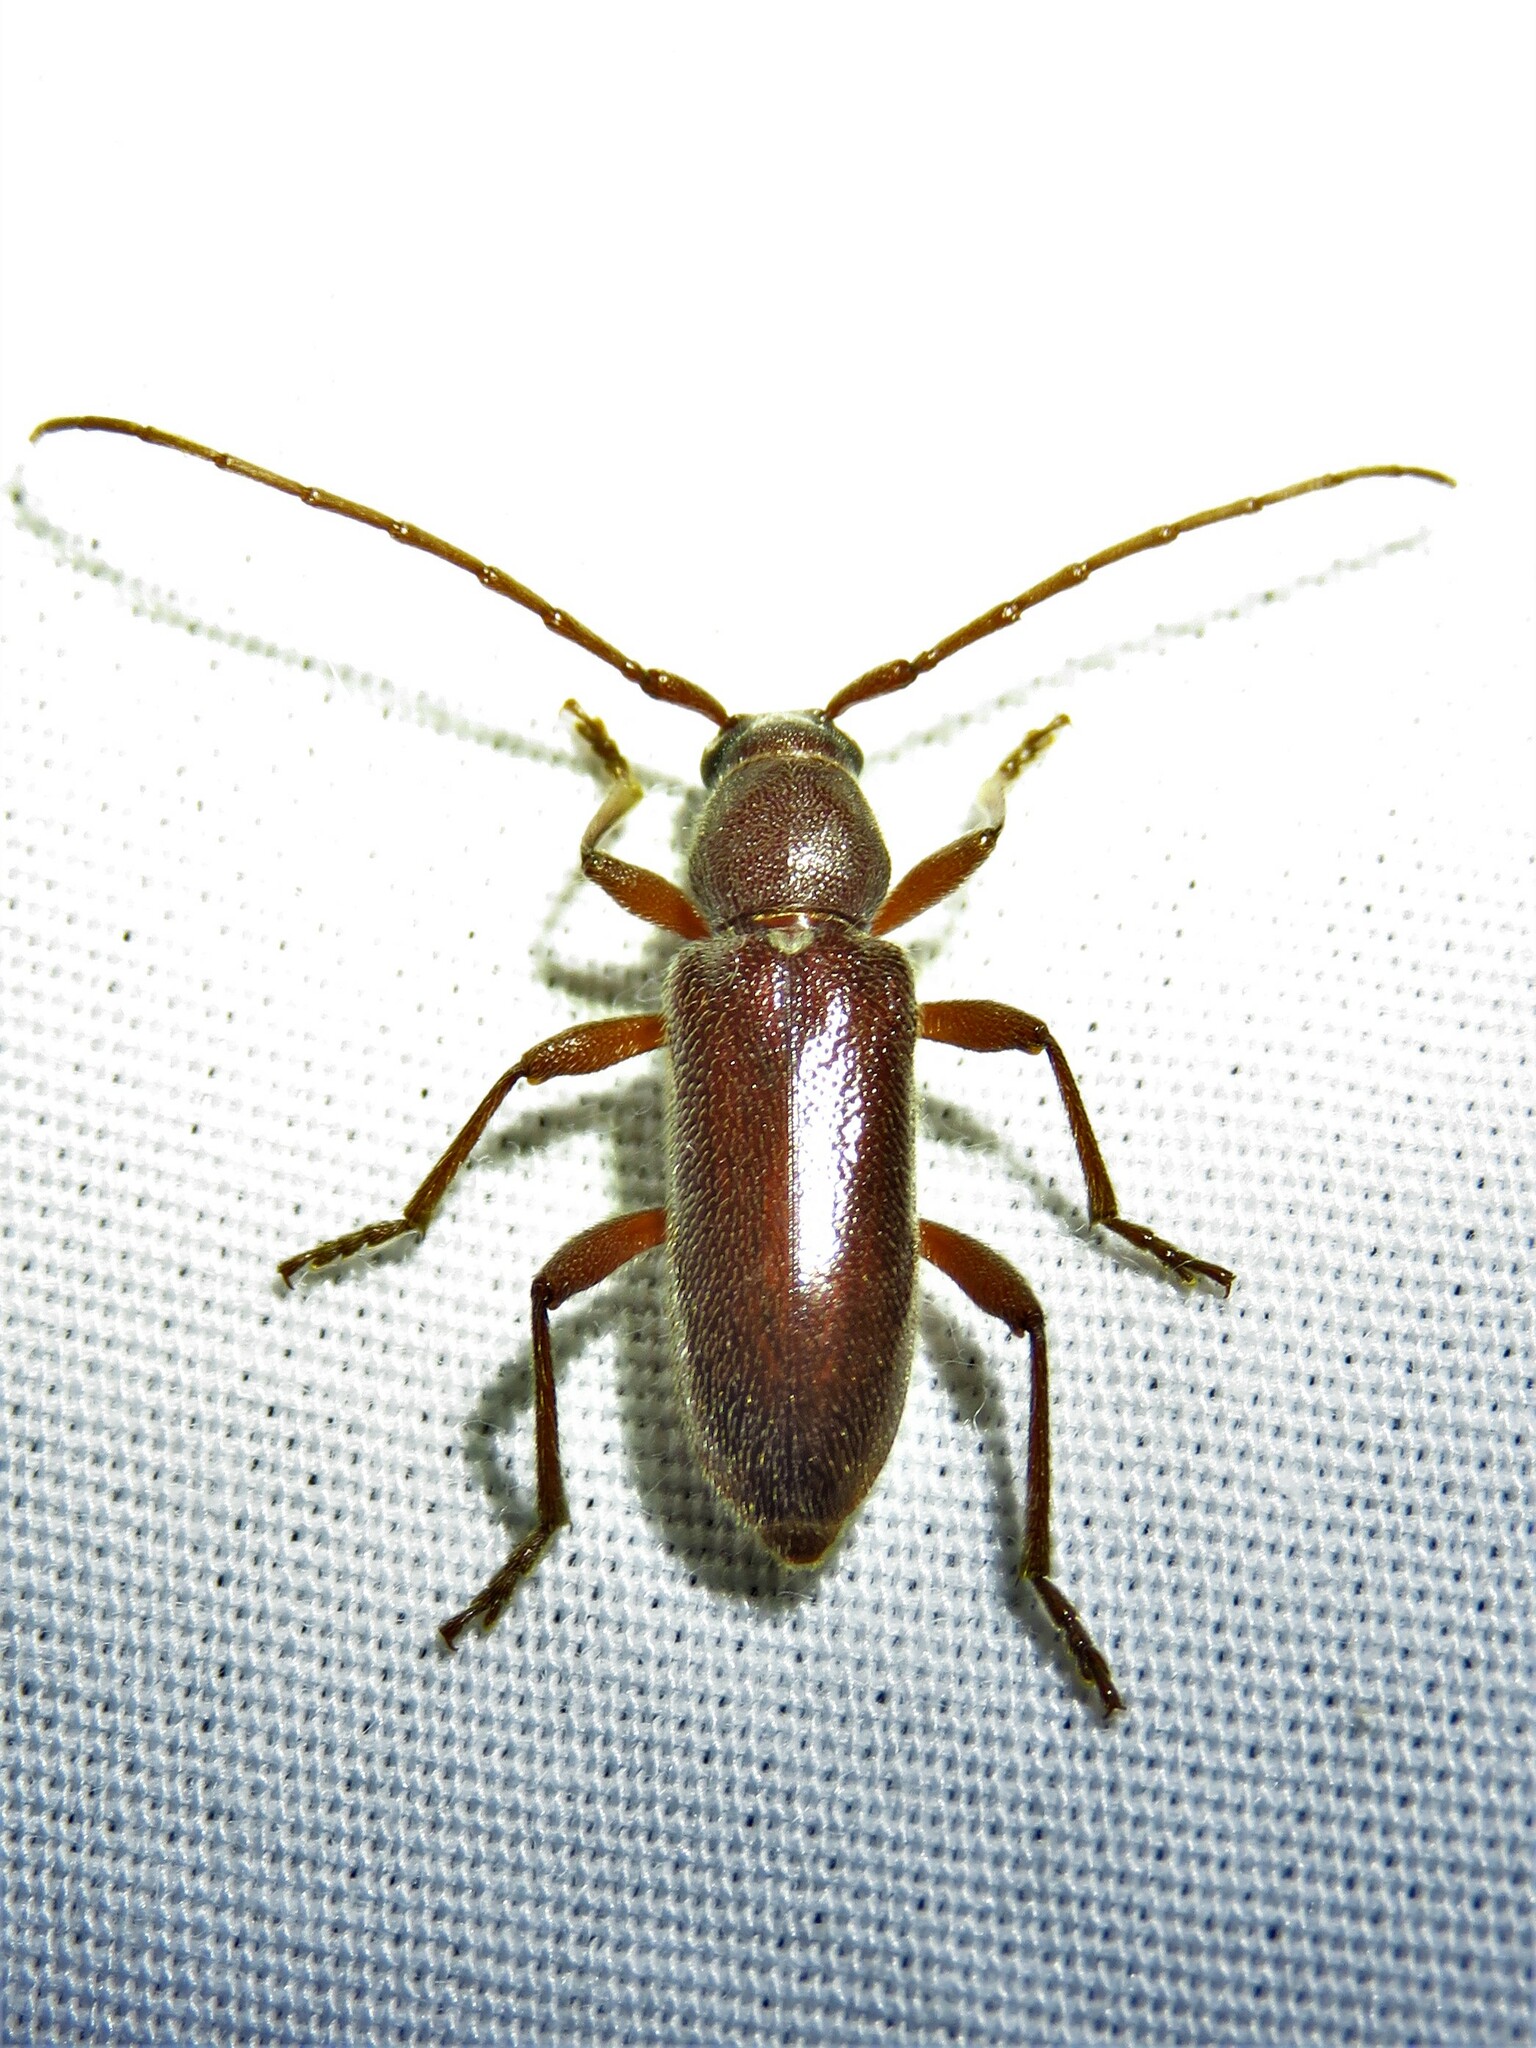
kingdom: Animalia
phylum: Arthropoda
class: Insecta
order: Coleoptera
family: Cerambycidae
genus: Anelaphus
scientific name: Anelaphus moestus
